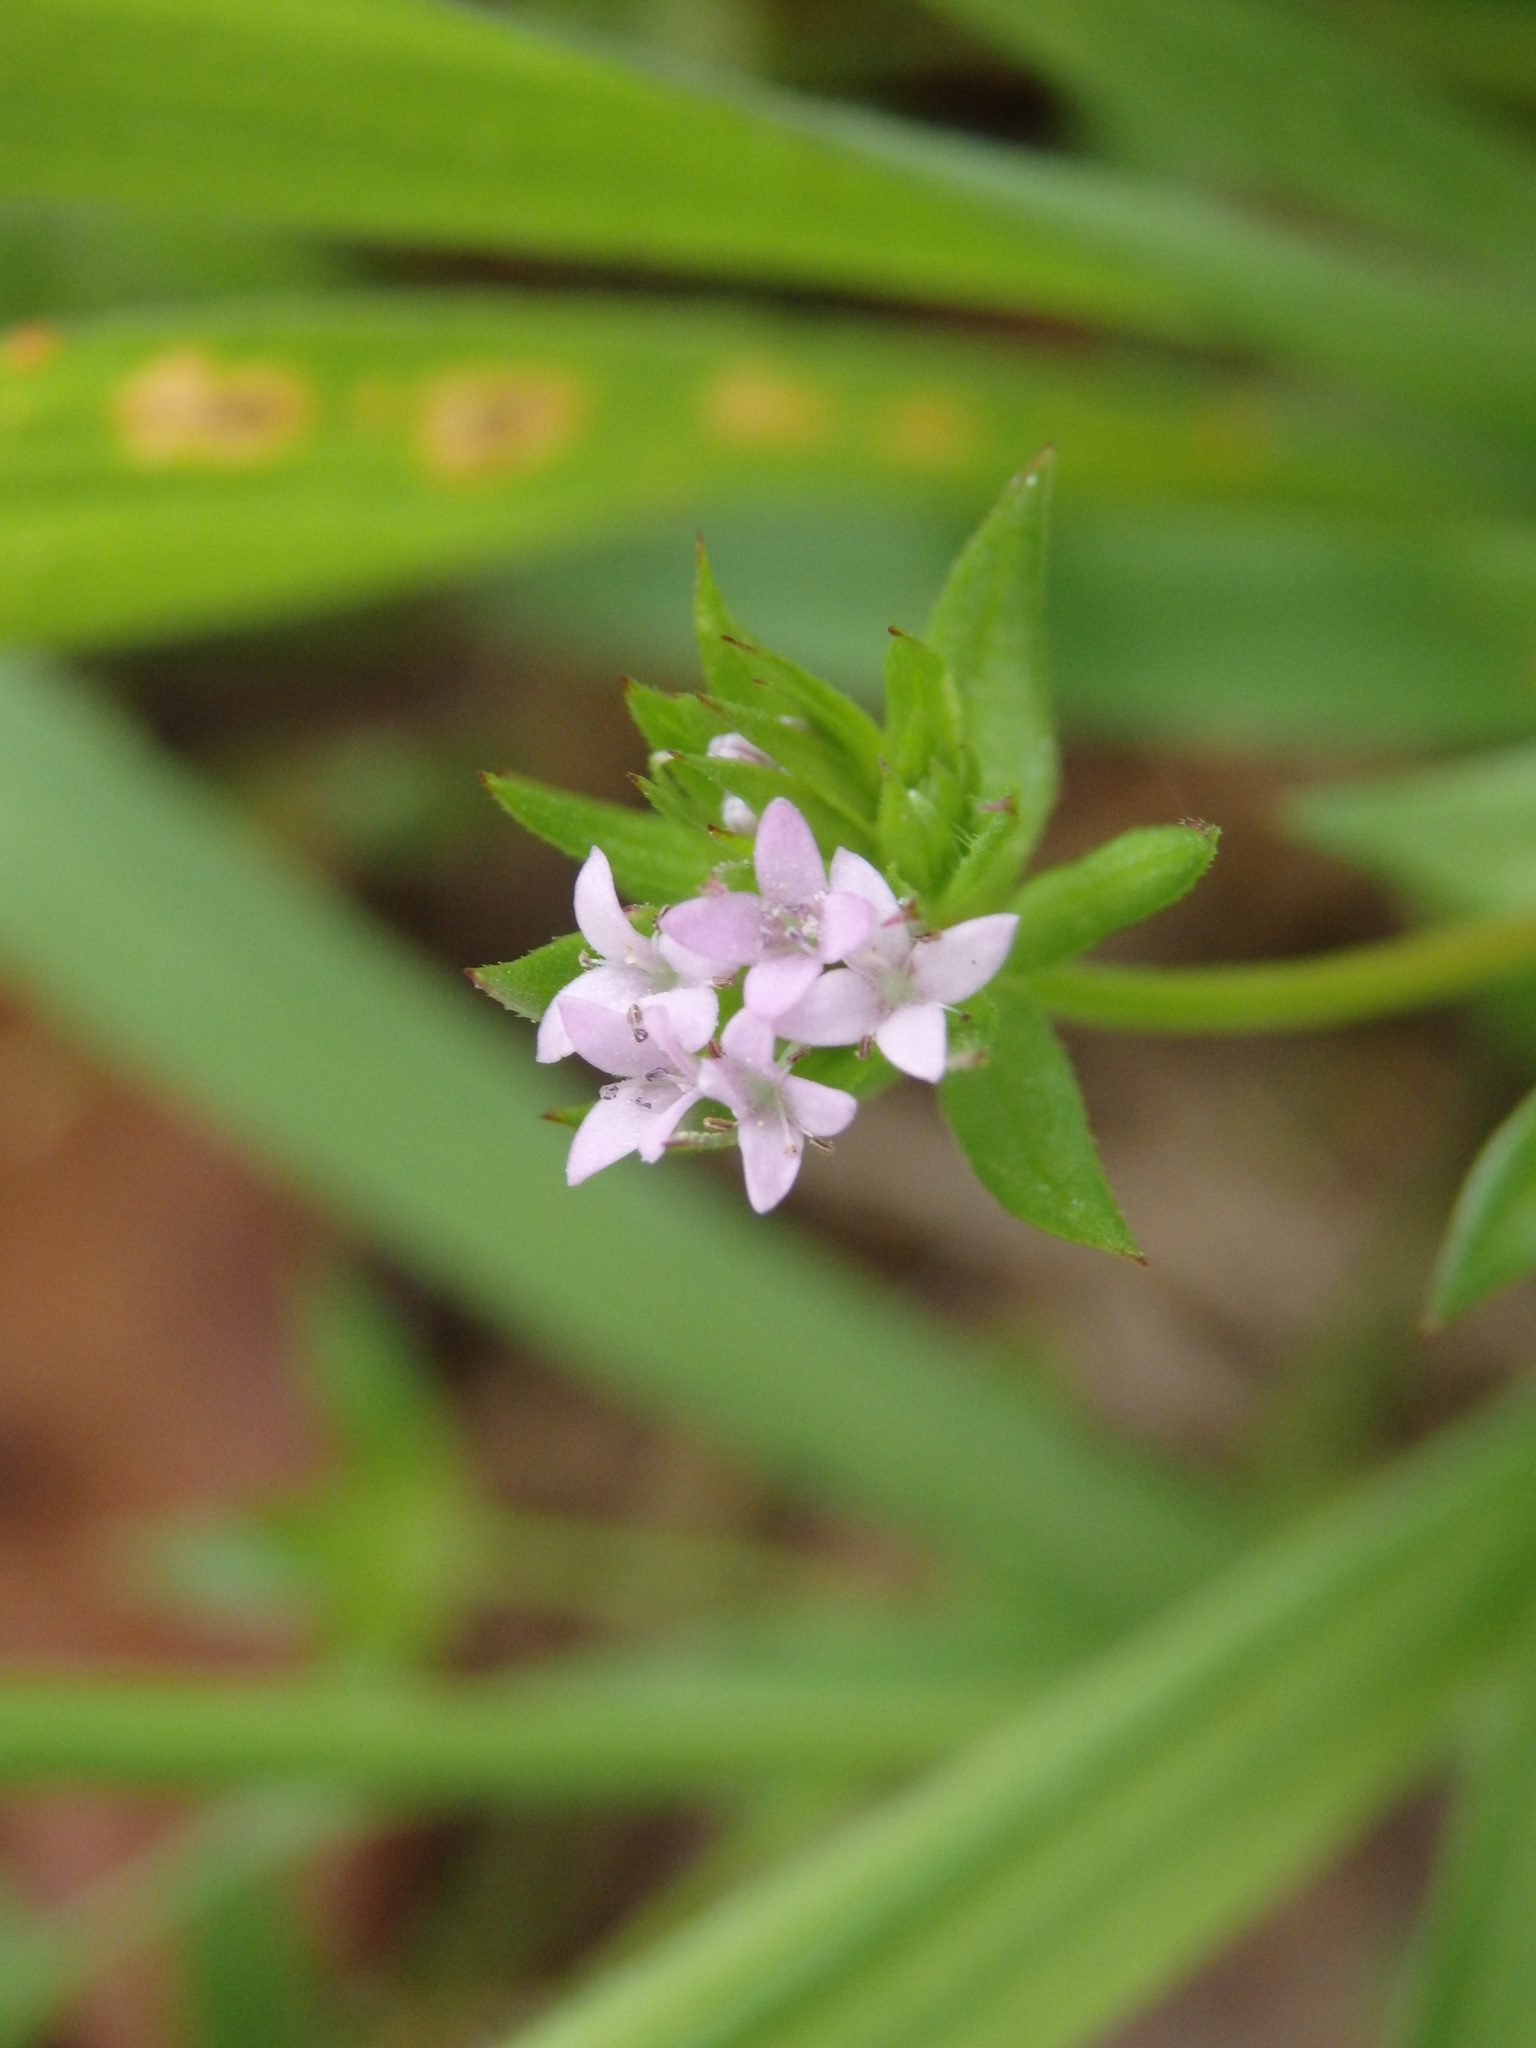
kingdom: Plantae
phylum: Tracheophyta
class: Magnoliopsida
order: Gentianales
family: Rubiaceae
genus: Sherardia
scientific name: Sherardia arvensis
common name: Field madder
